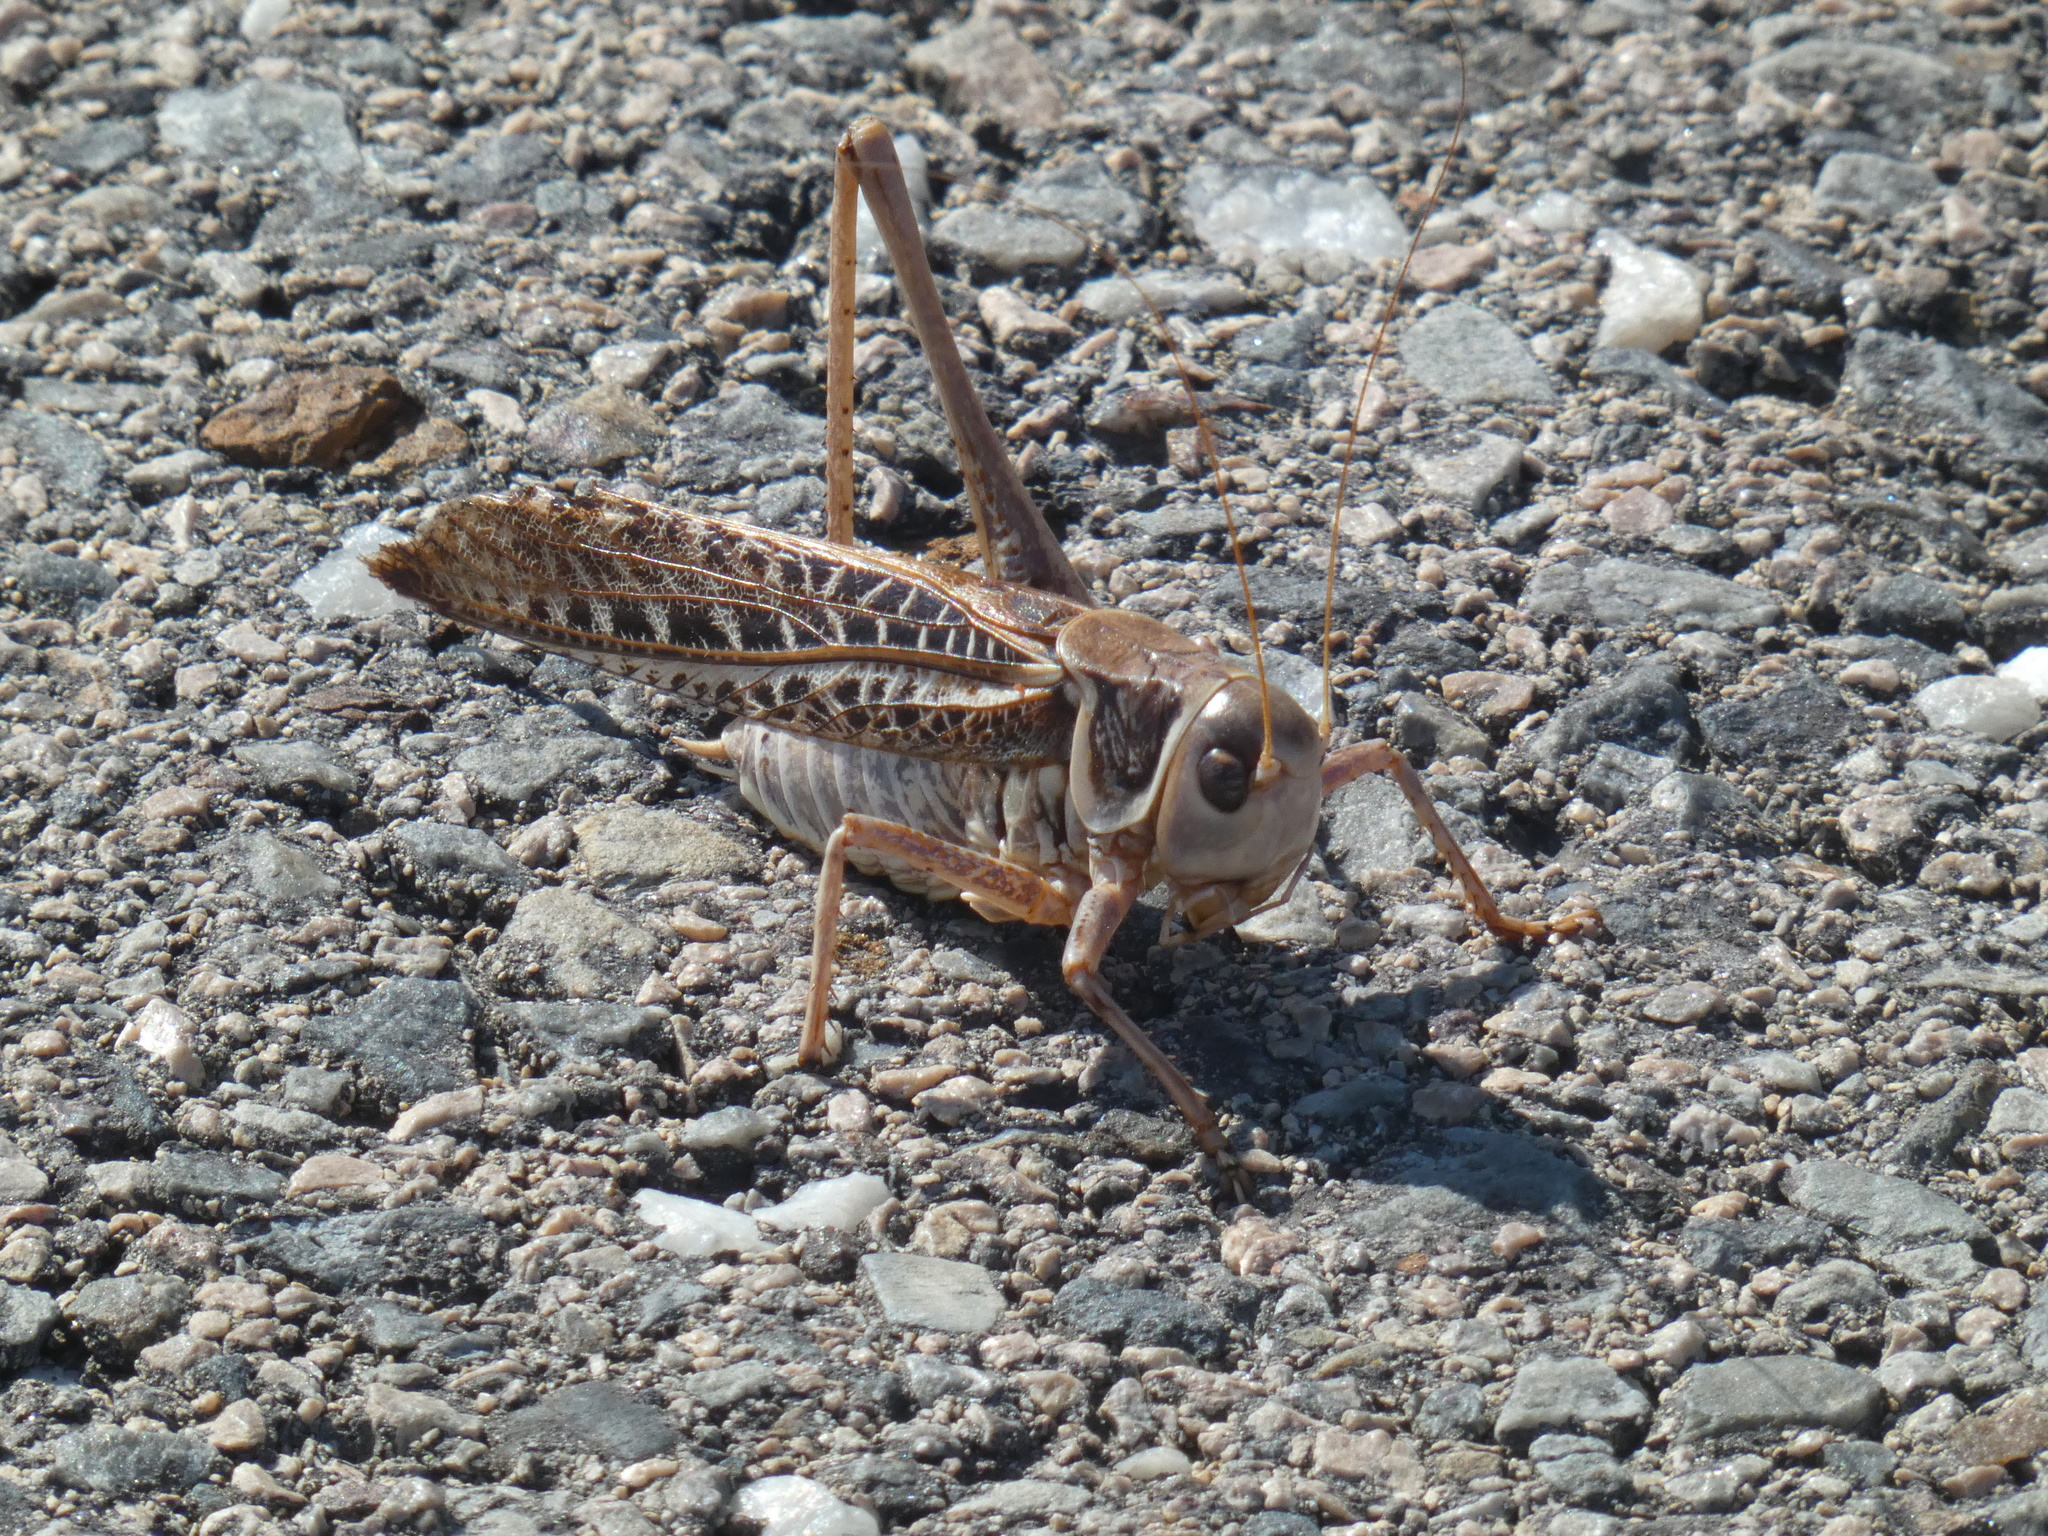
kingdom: Animalia
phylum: Arthropoda
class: Insecta
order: Orthoptera
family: Tettigoniidae
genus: Decticus
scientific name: Decticus albifrons
